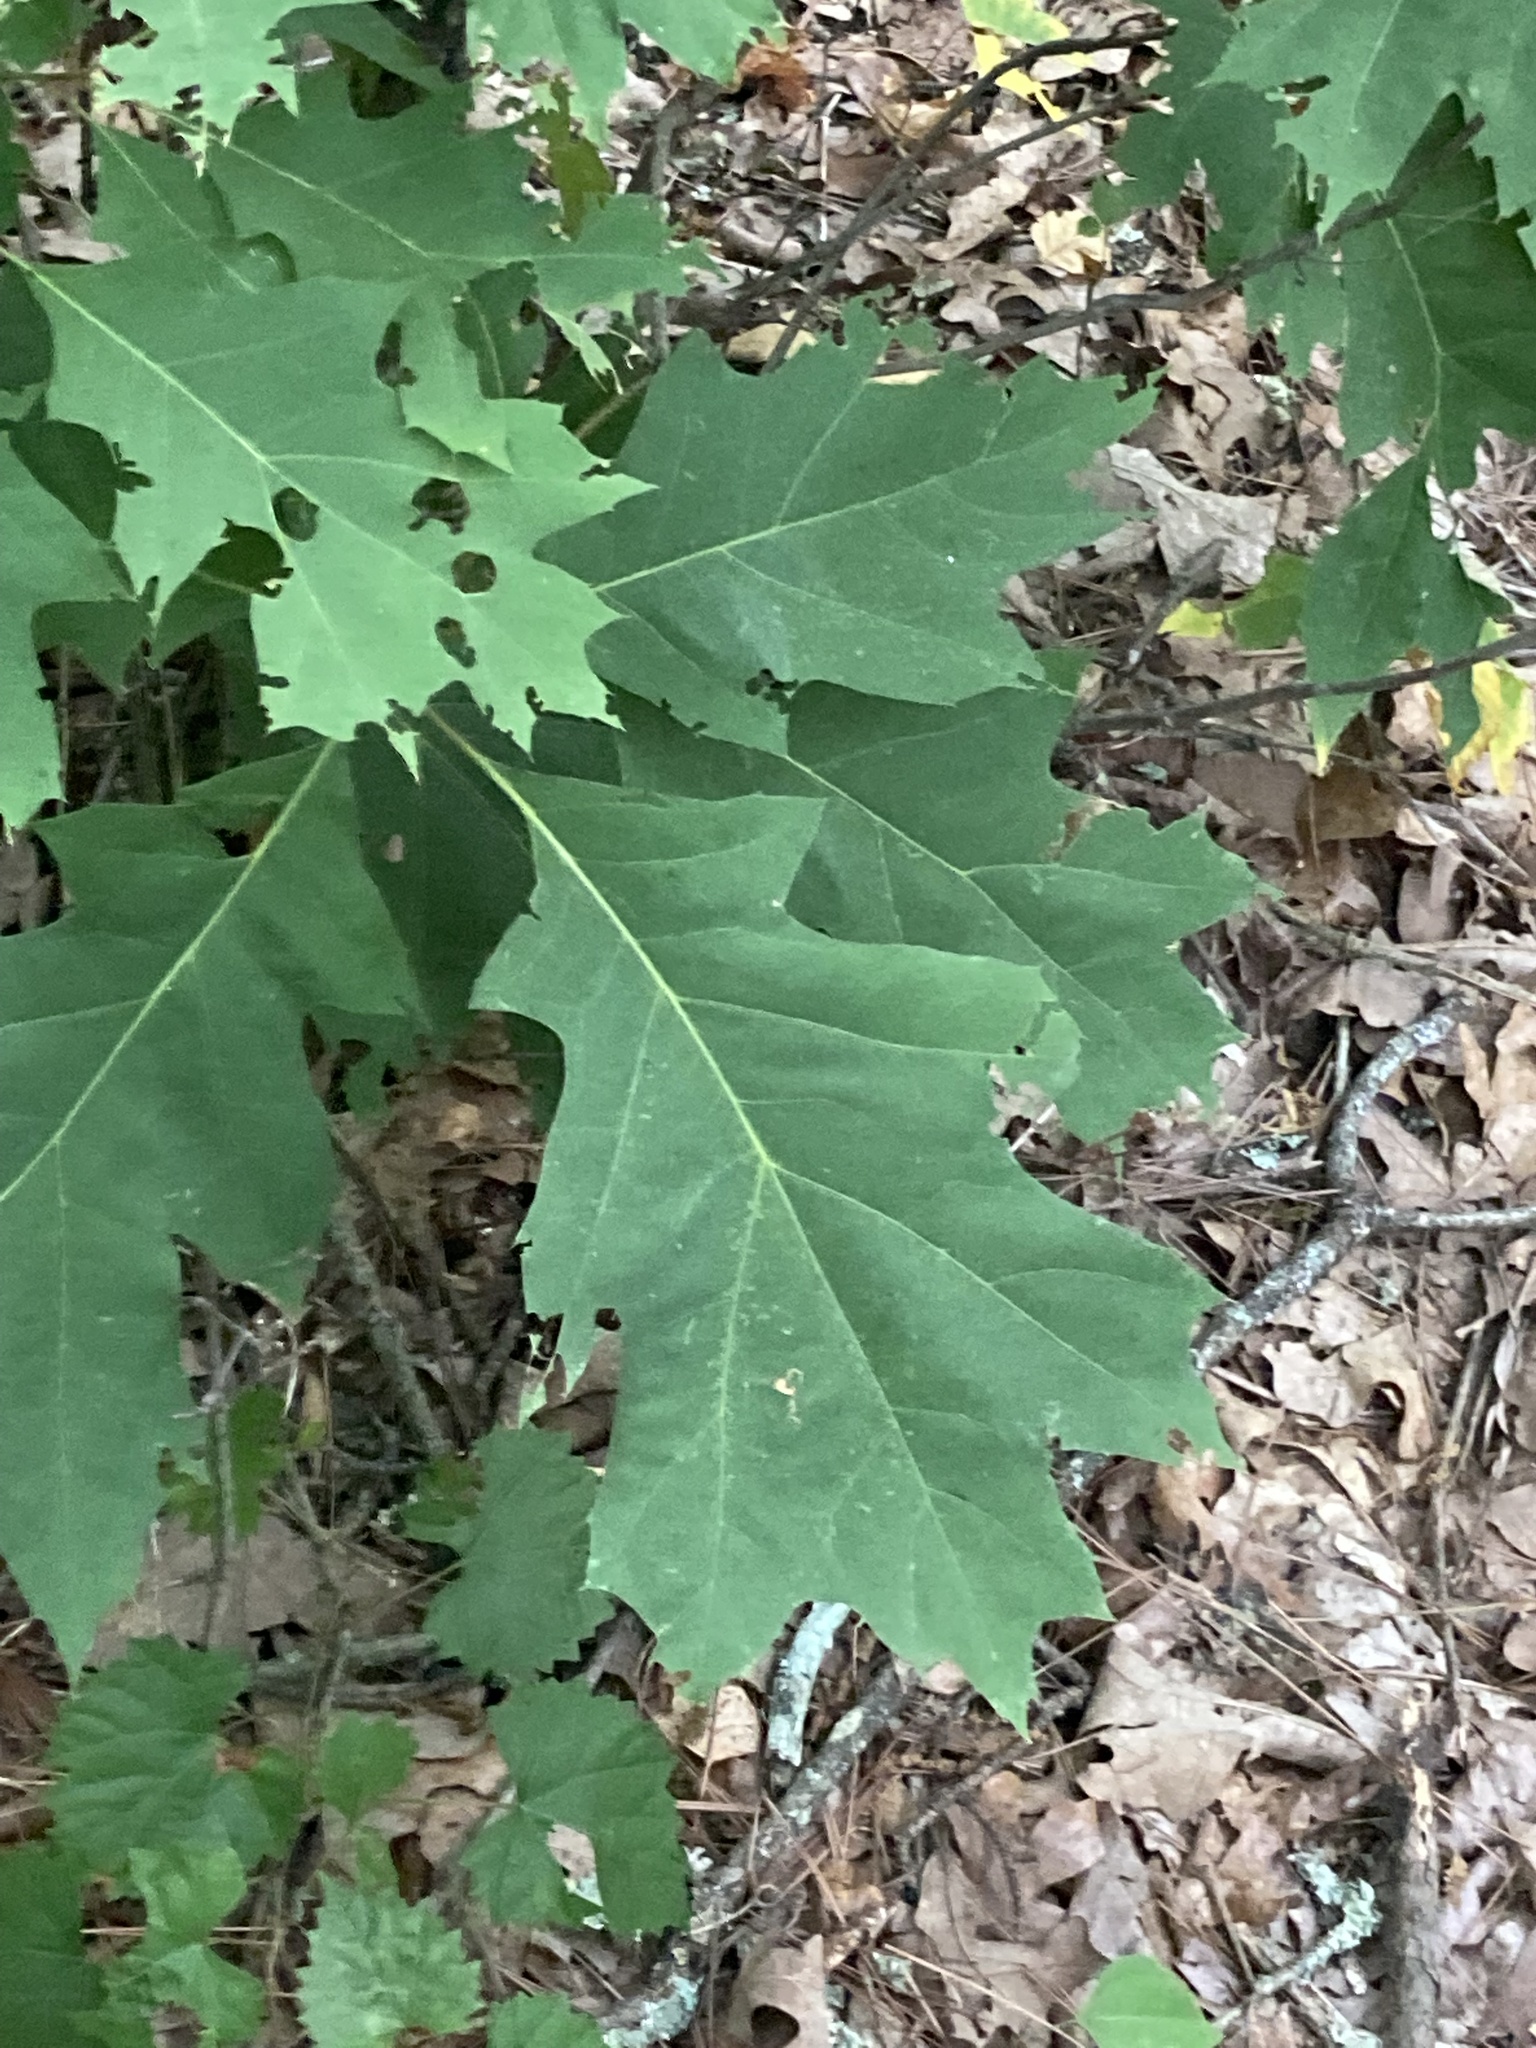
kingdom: Plantae
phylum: Tracheophyta
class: Magnoliopsida
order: Fagales
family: Fagaceae
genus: Quercus
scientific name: Quercus rubra
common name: Red oak
